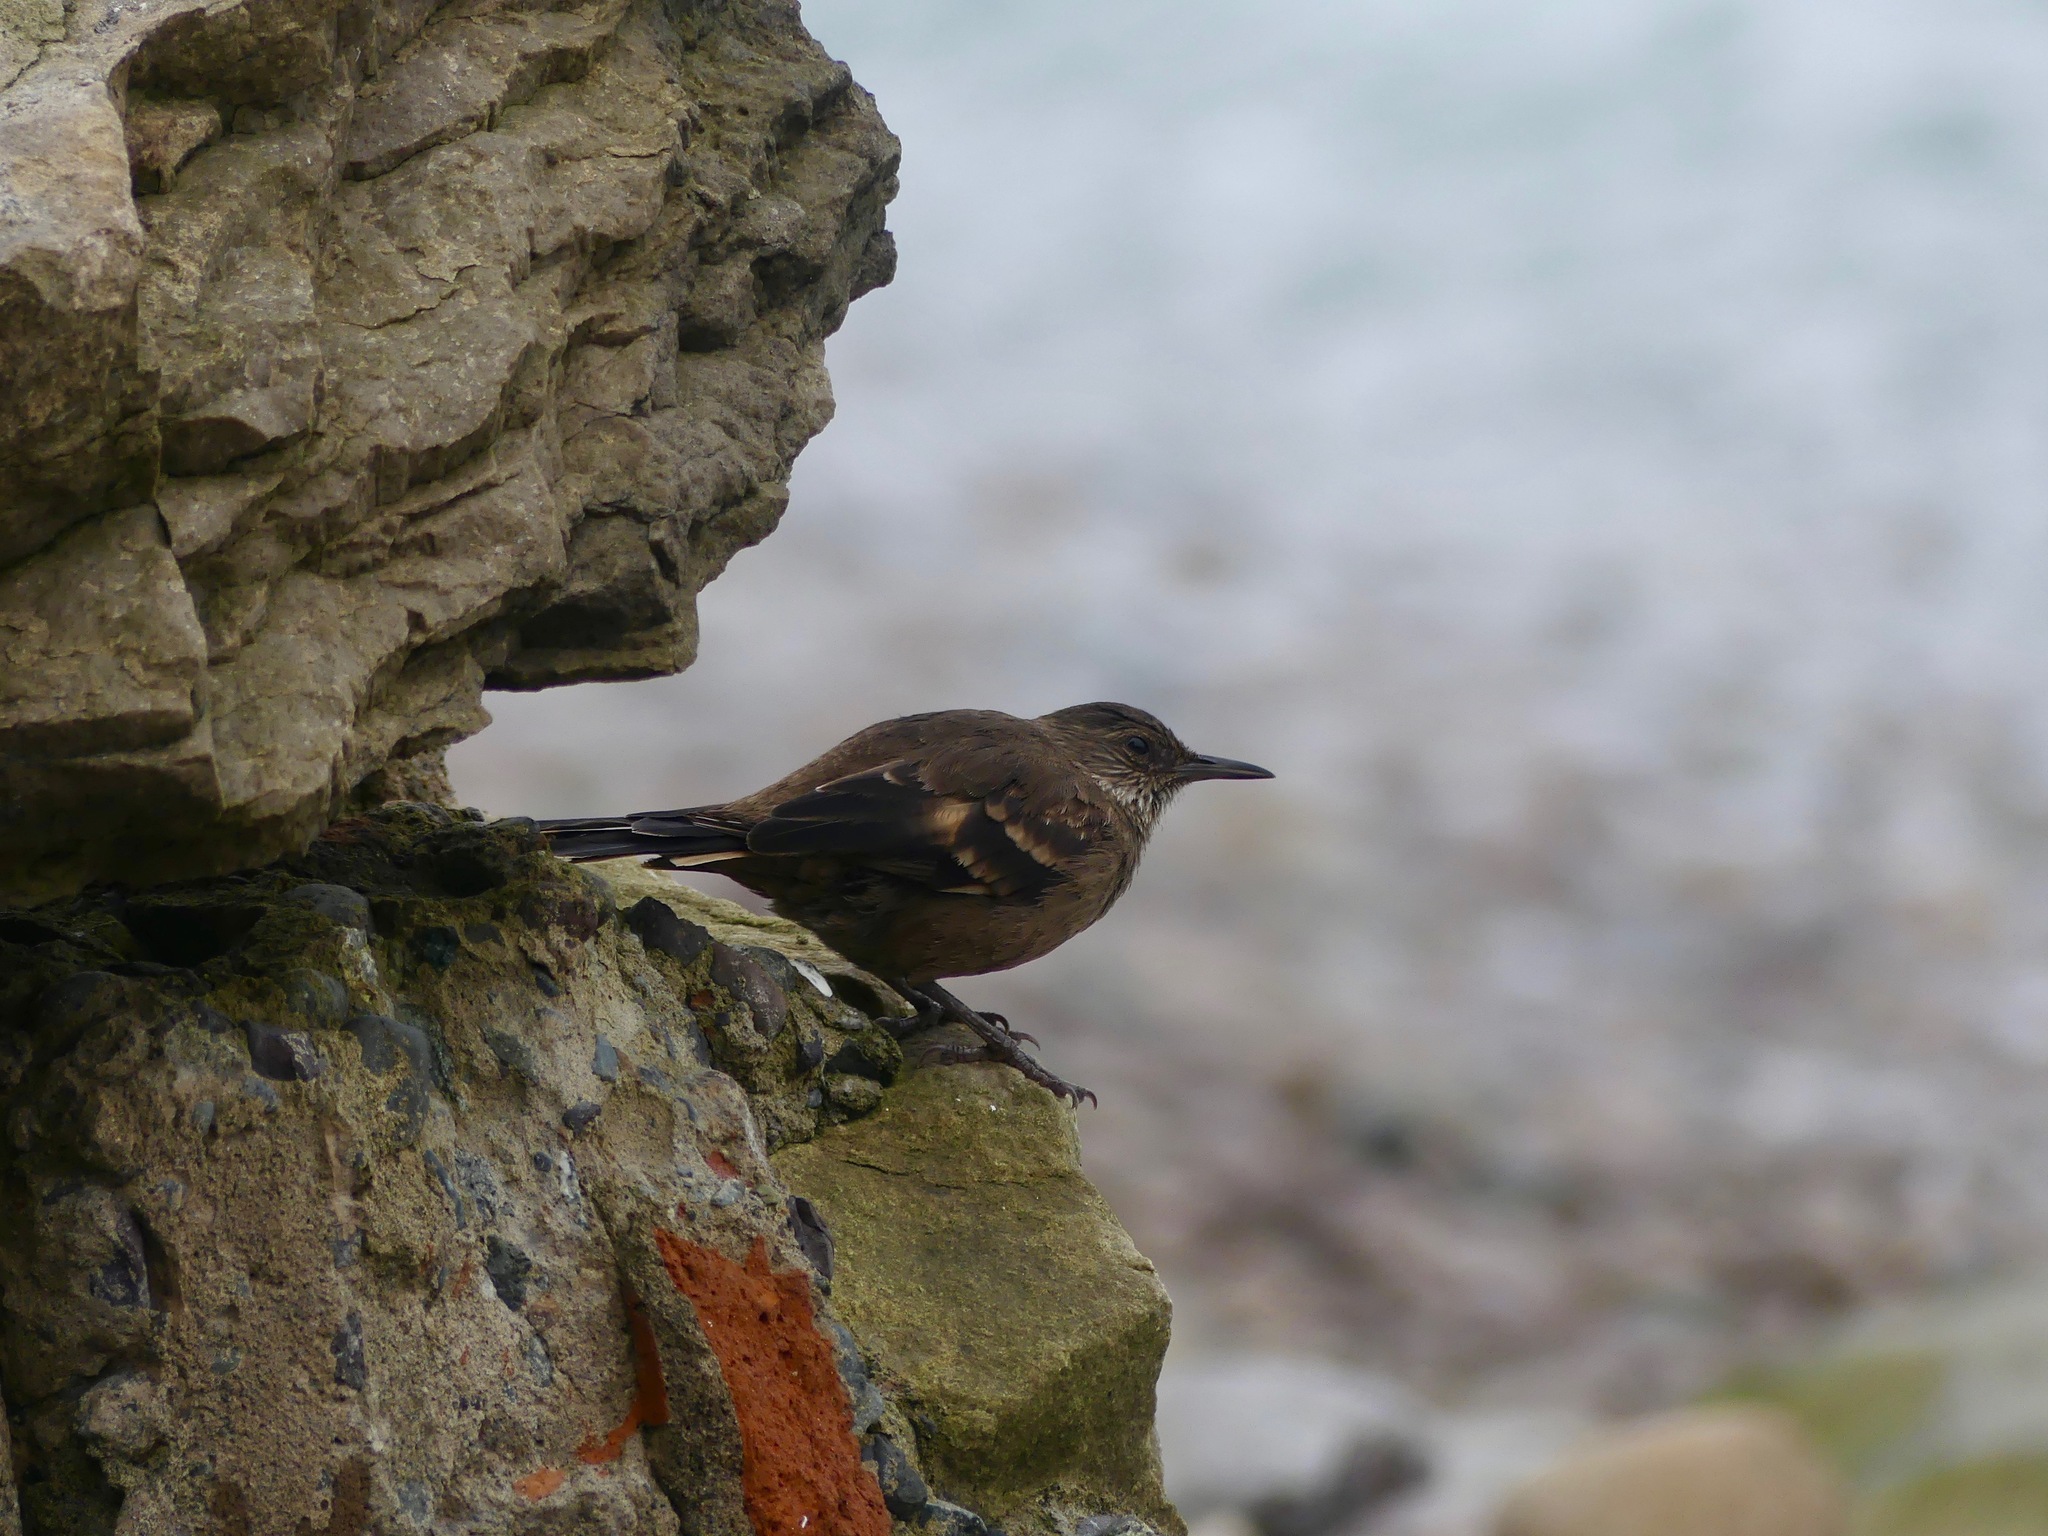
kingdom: Animalia
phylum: Chordata
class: Aves
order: Passeriformes
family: Furnariidae
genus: Cinclodes
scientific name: Cinclodes taczanowskii
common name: Peruvian seaside cinclodes
